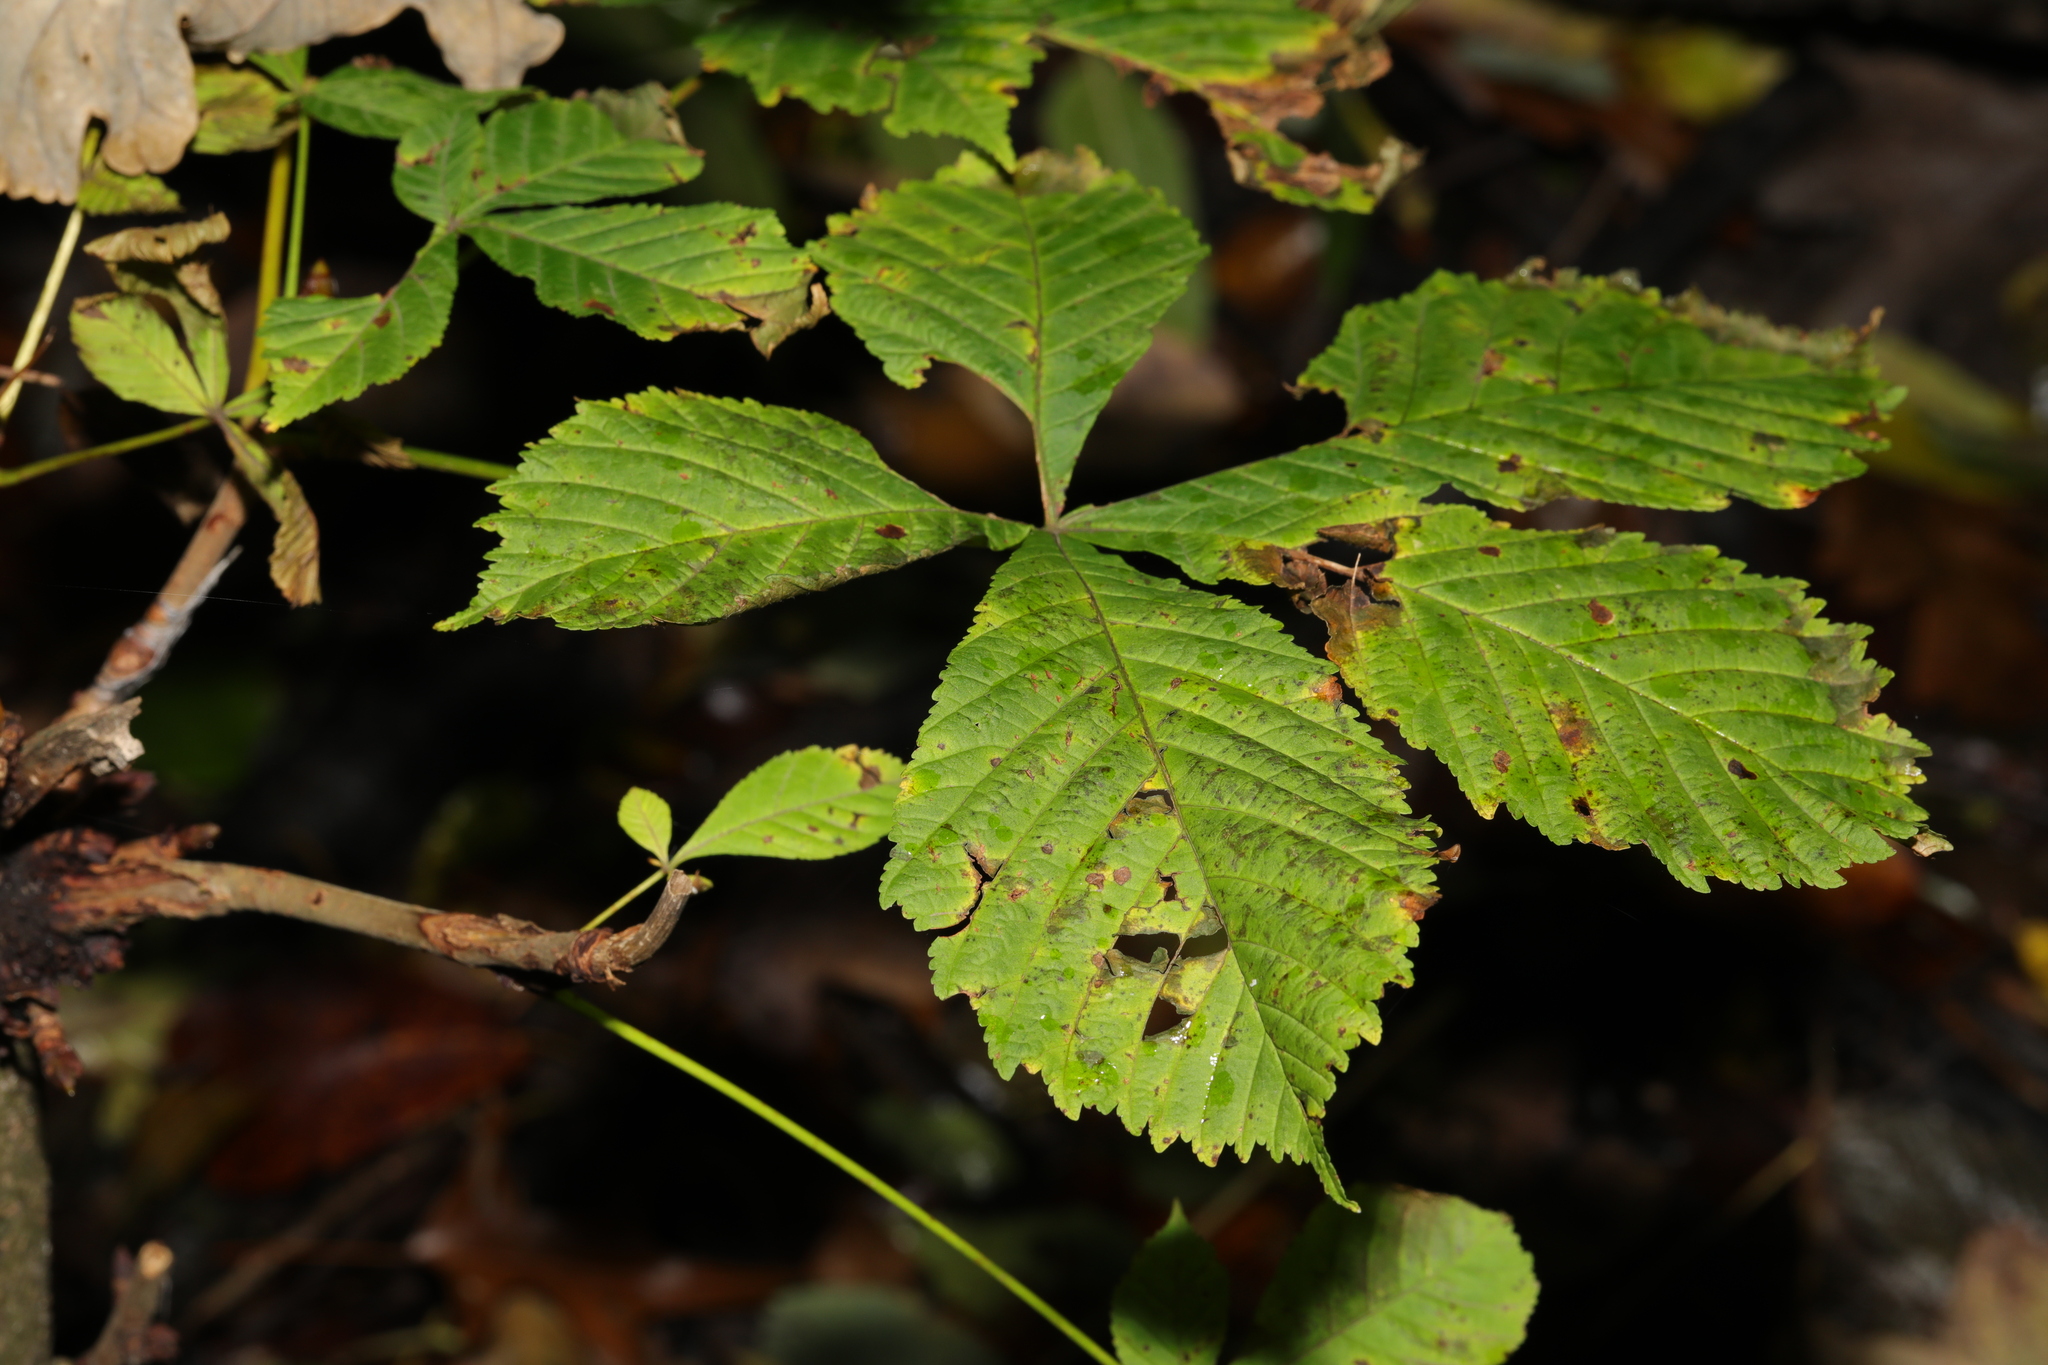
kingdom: Plantae
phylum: Tracheophyta
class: Magnoliopsida
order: Sapindales
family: Sapindaceae
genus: Aesculus
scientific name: Aesculus hippocastanum
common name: Horse-chestnut
